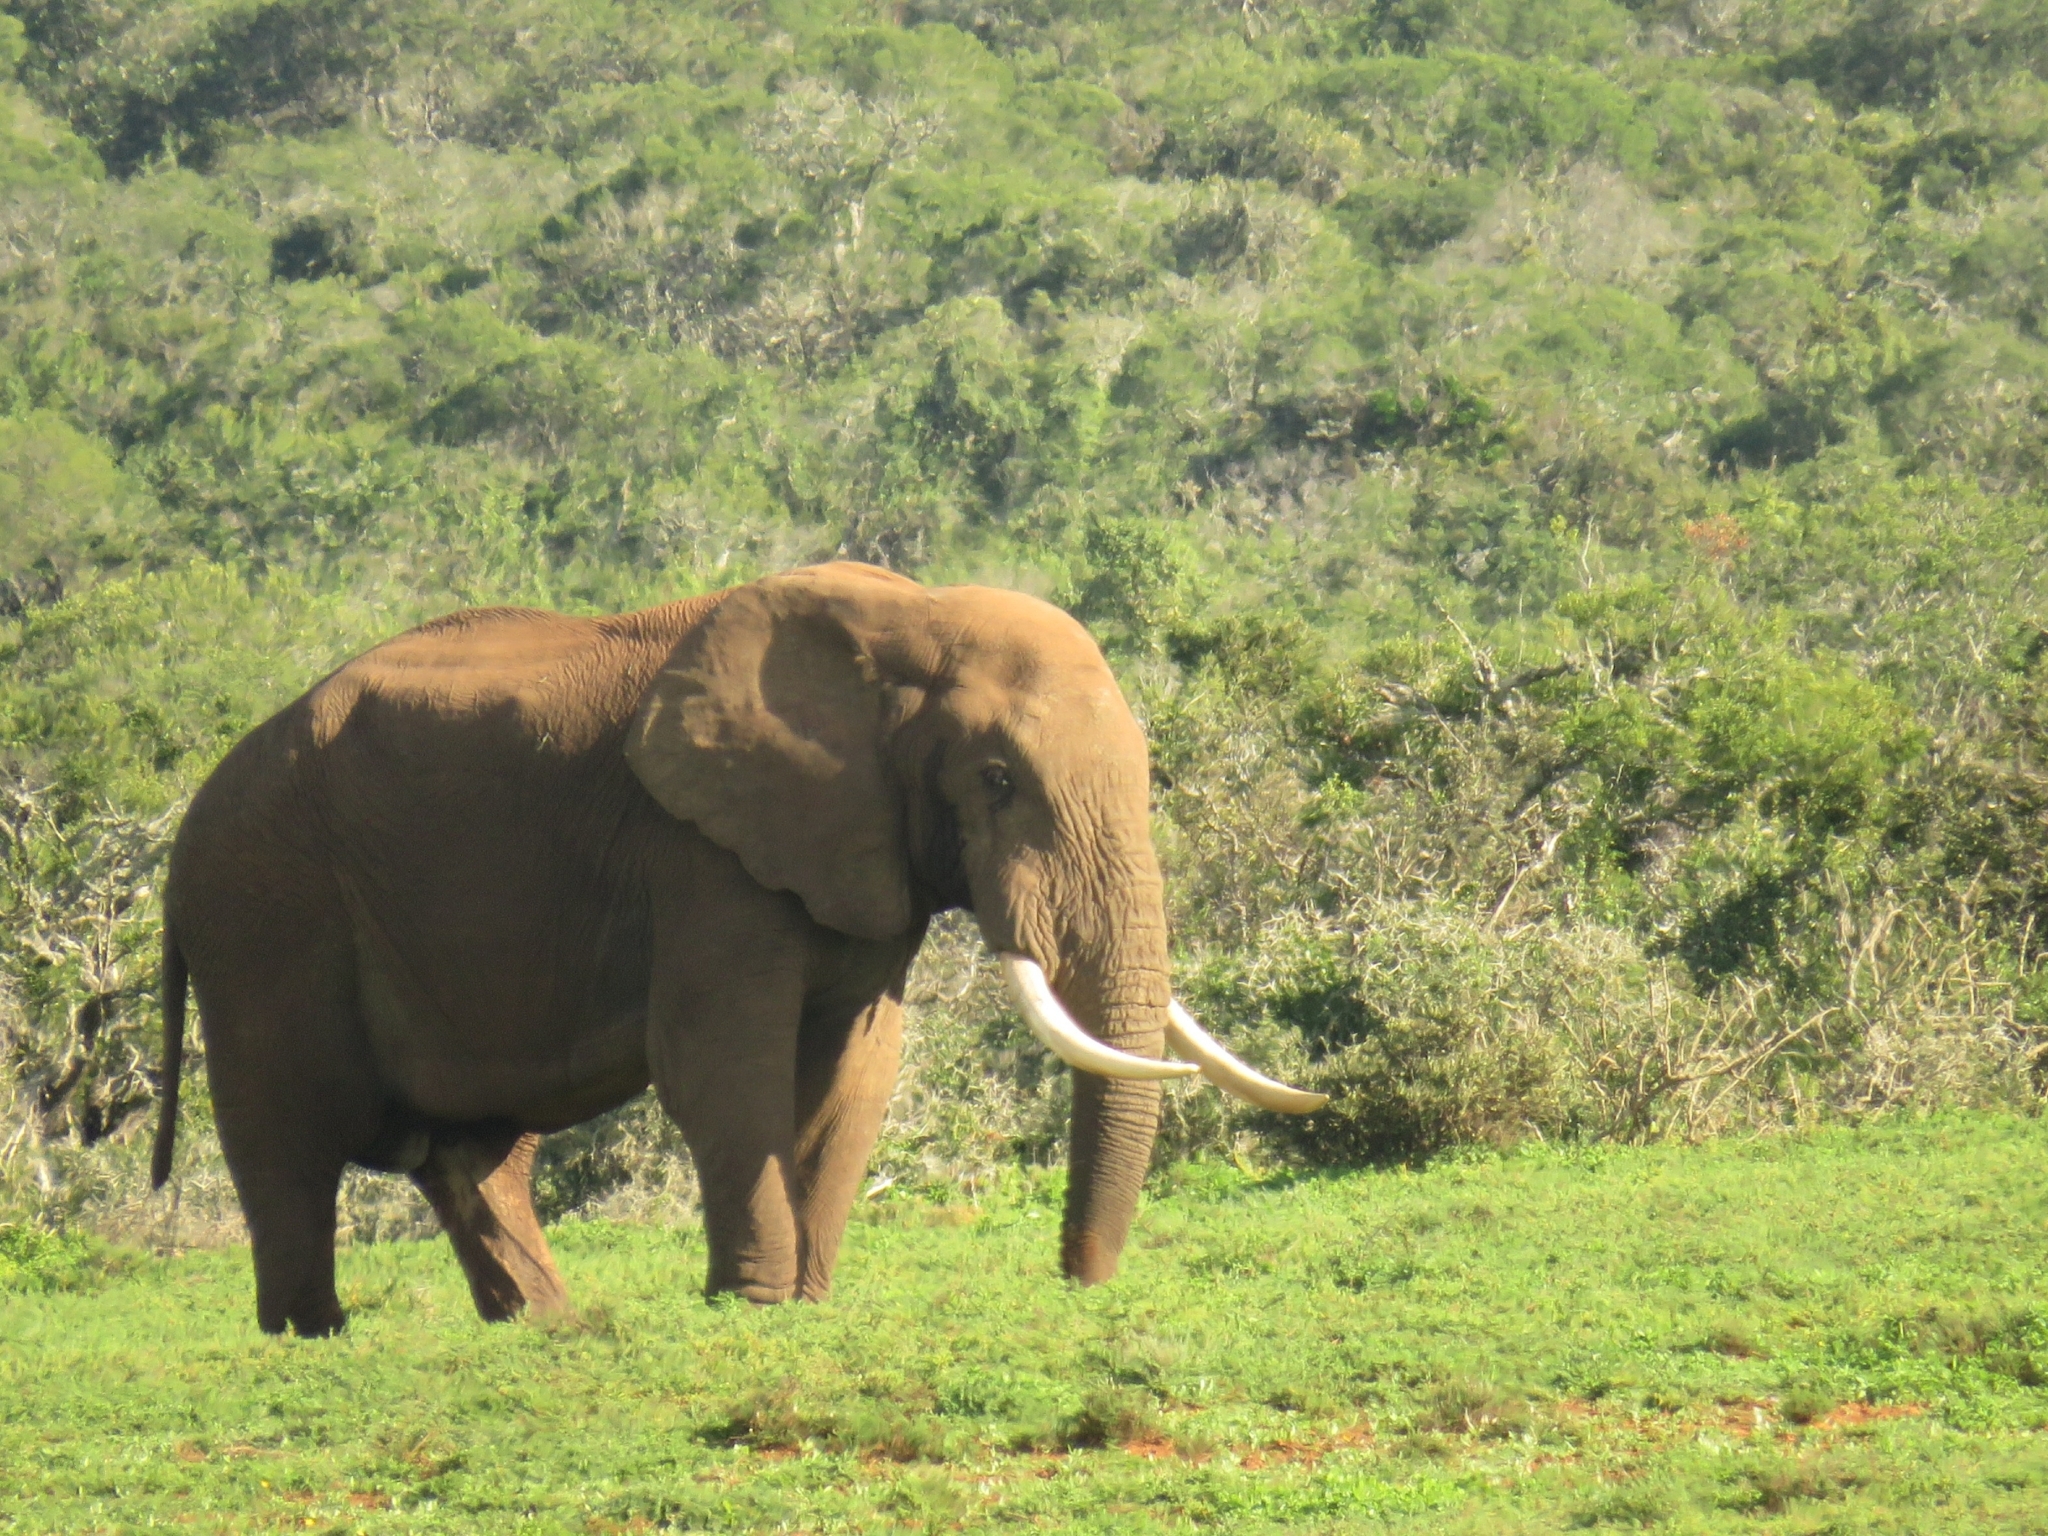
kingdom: Animalia
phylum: Chordata
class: Mammalia
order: Proboscidea
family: Elephantidae
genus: Loxodonta
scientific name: Loxodonta africana
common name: African elephant
